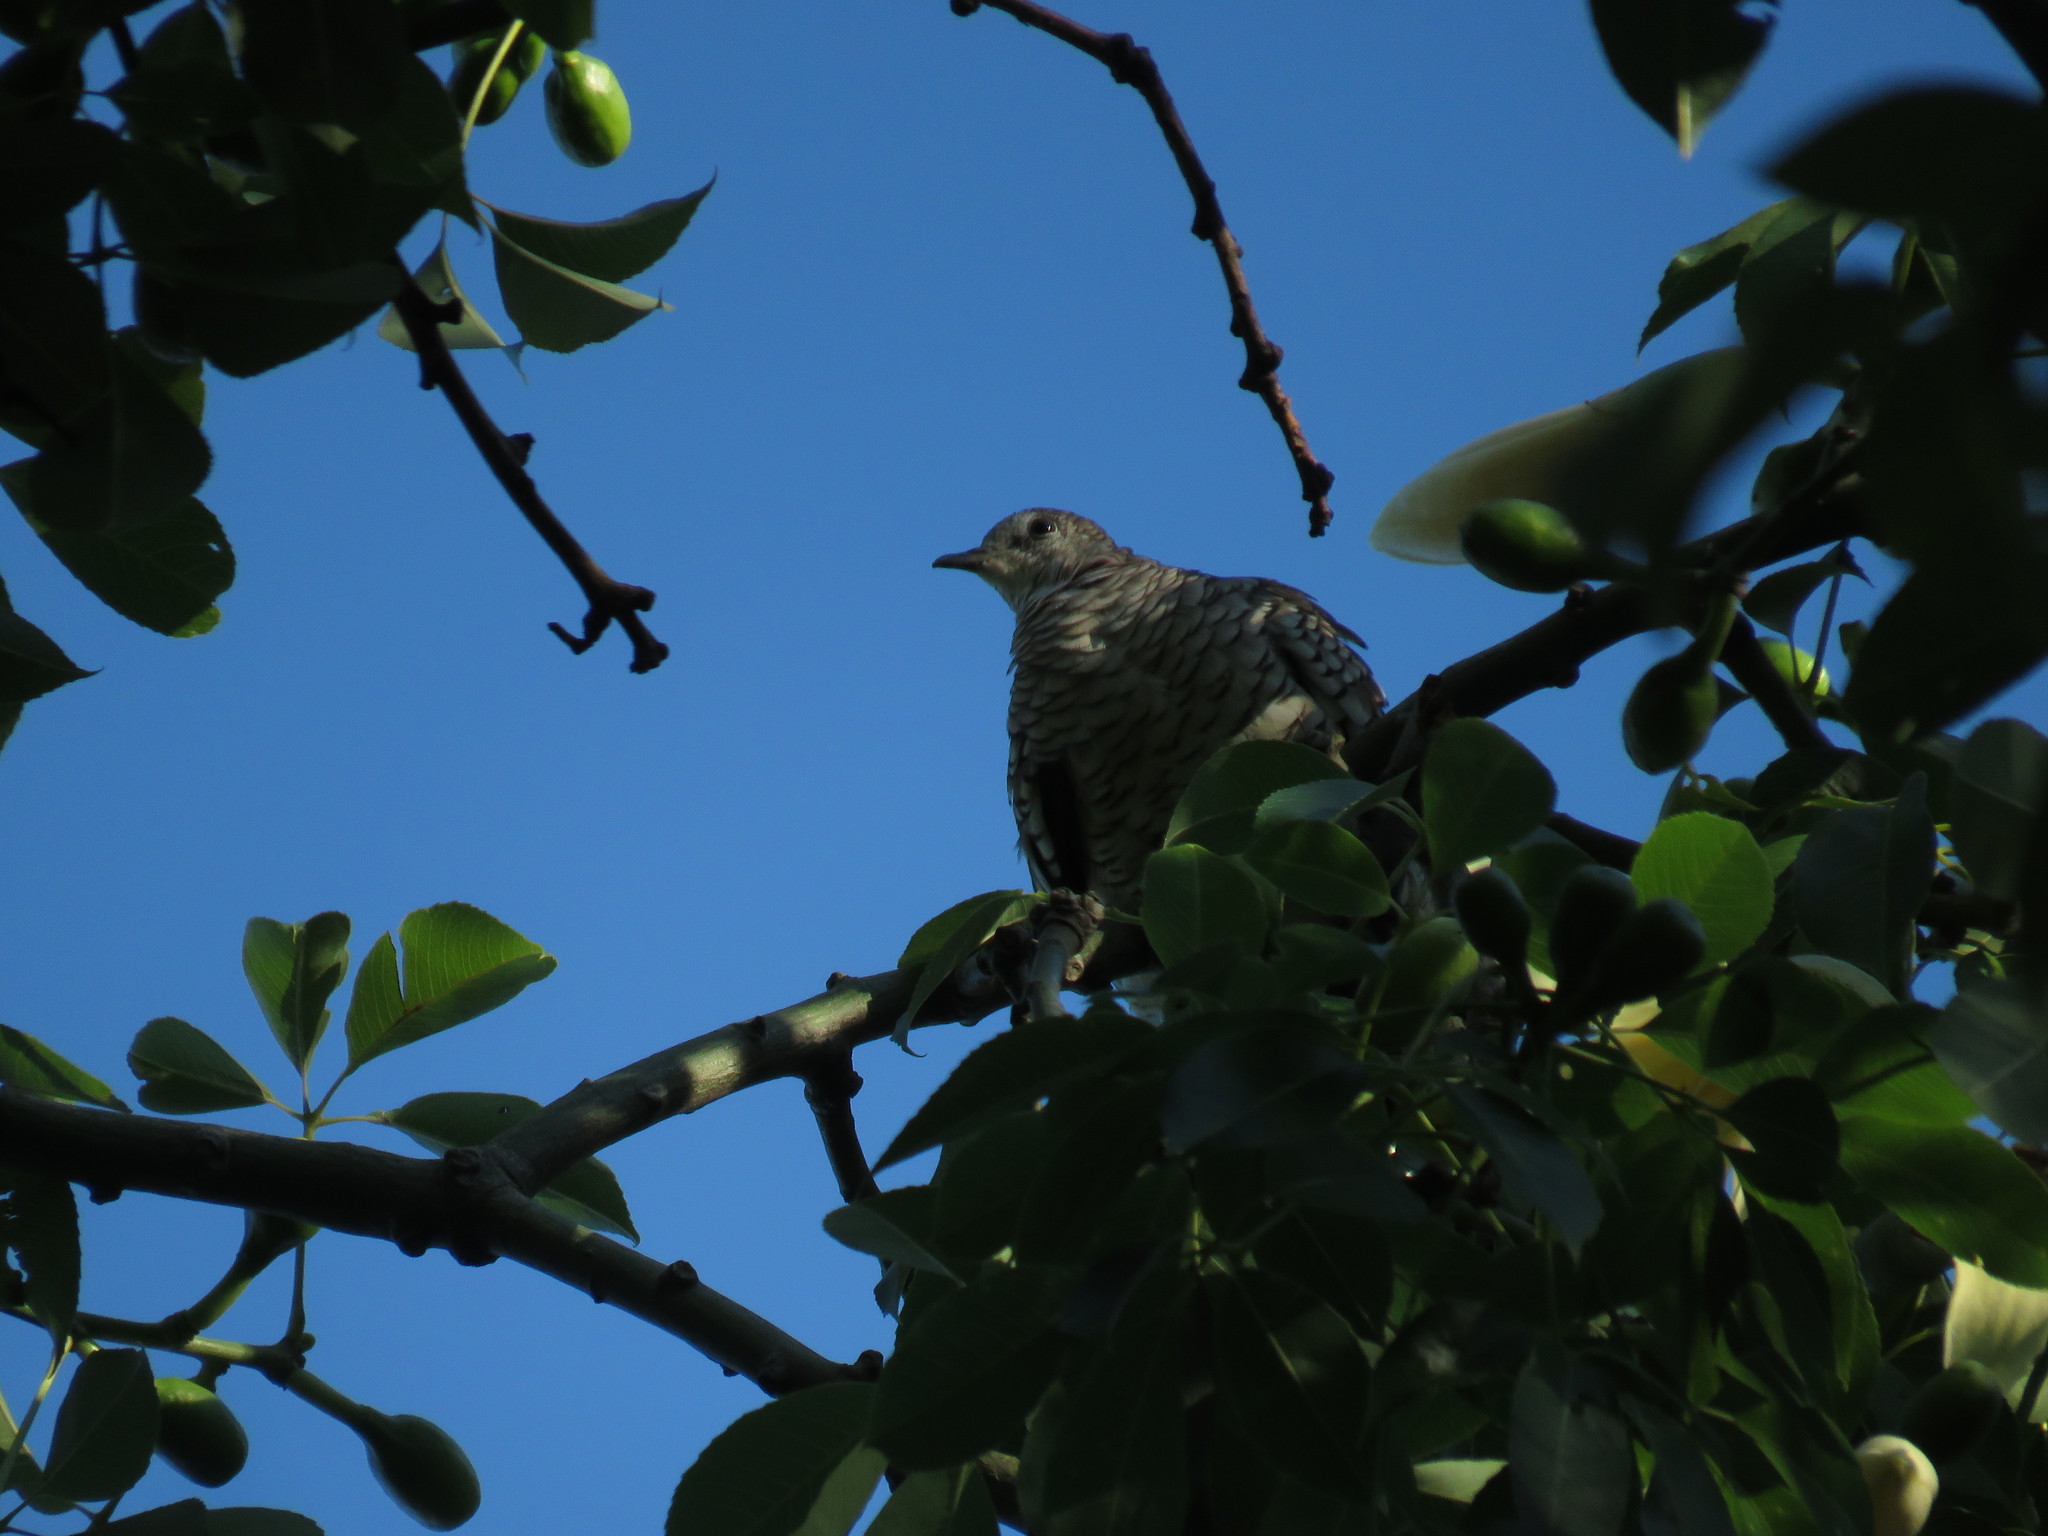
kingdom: Animalia
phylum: Chordata
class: Aves
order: Columbiformes
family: Columbidae
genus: Columbina
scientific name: Columbina squammata
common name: Scaled dove
